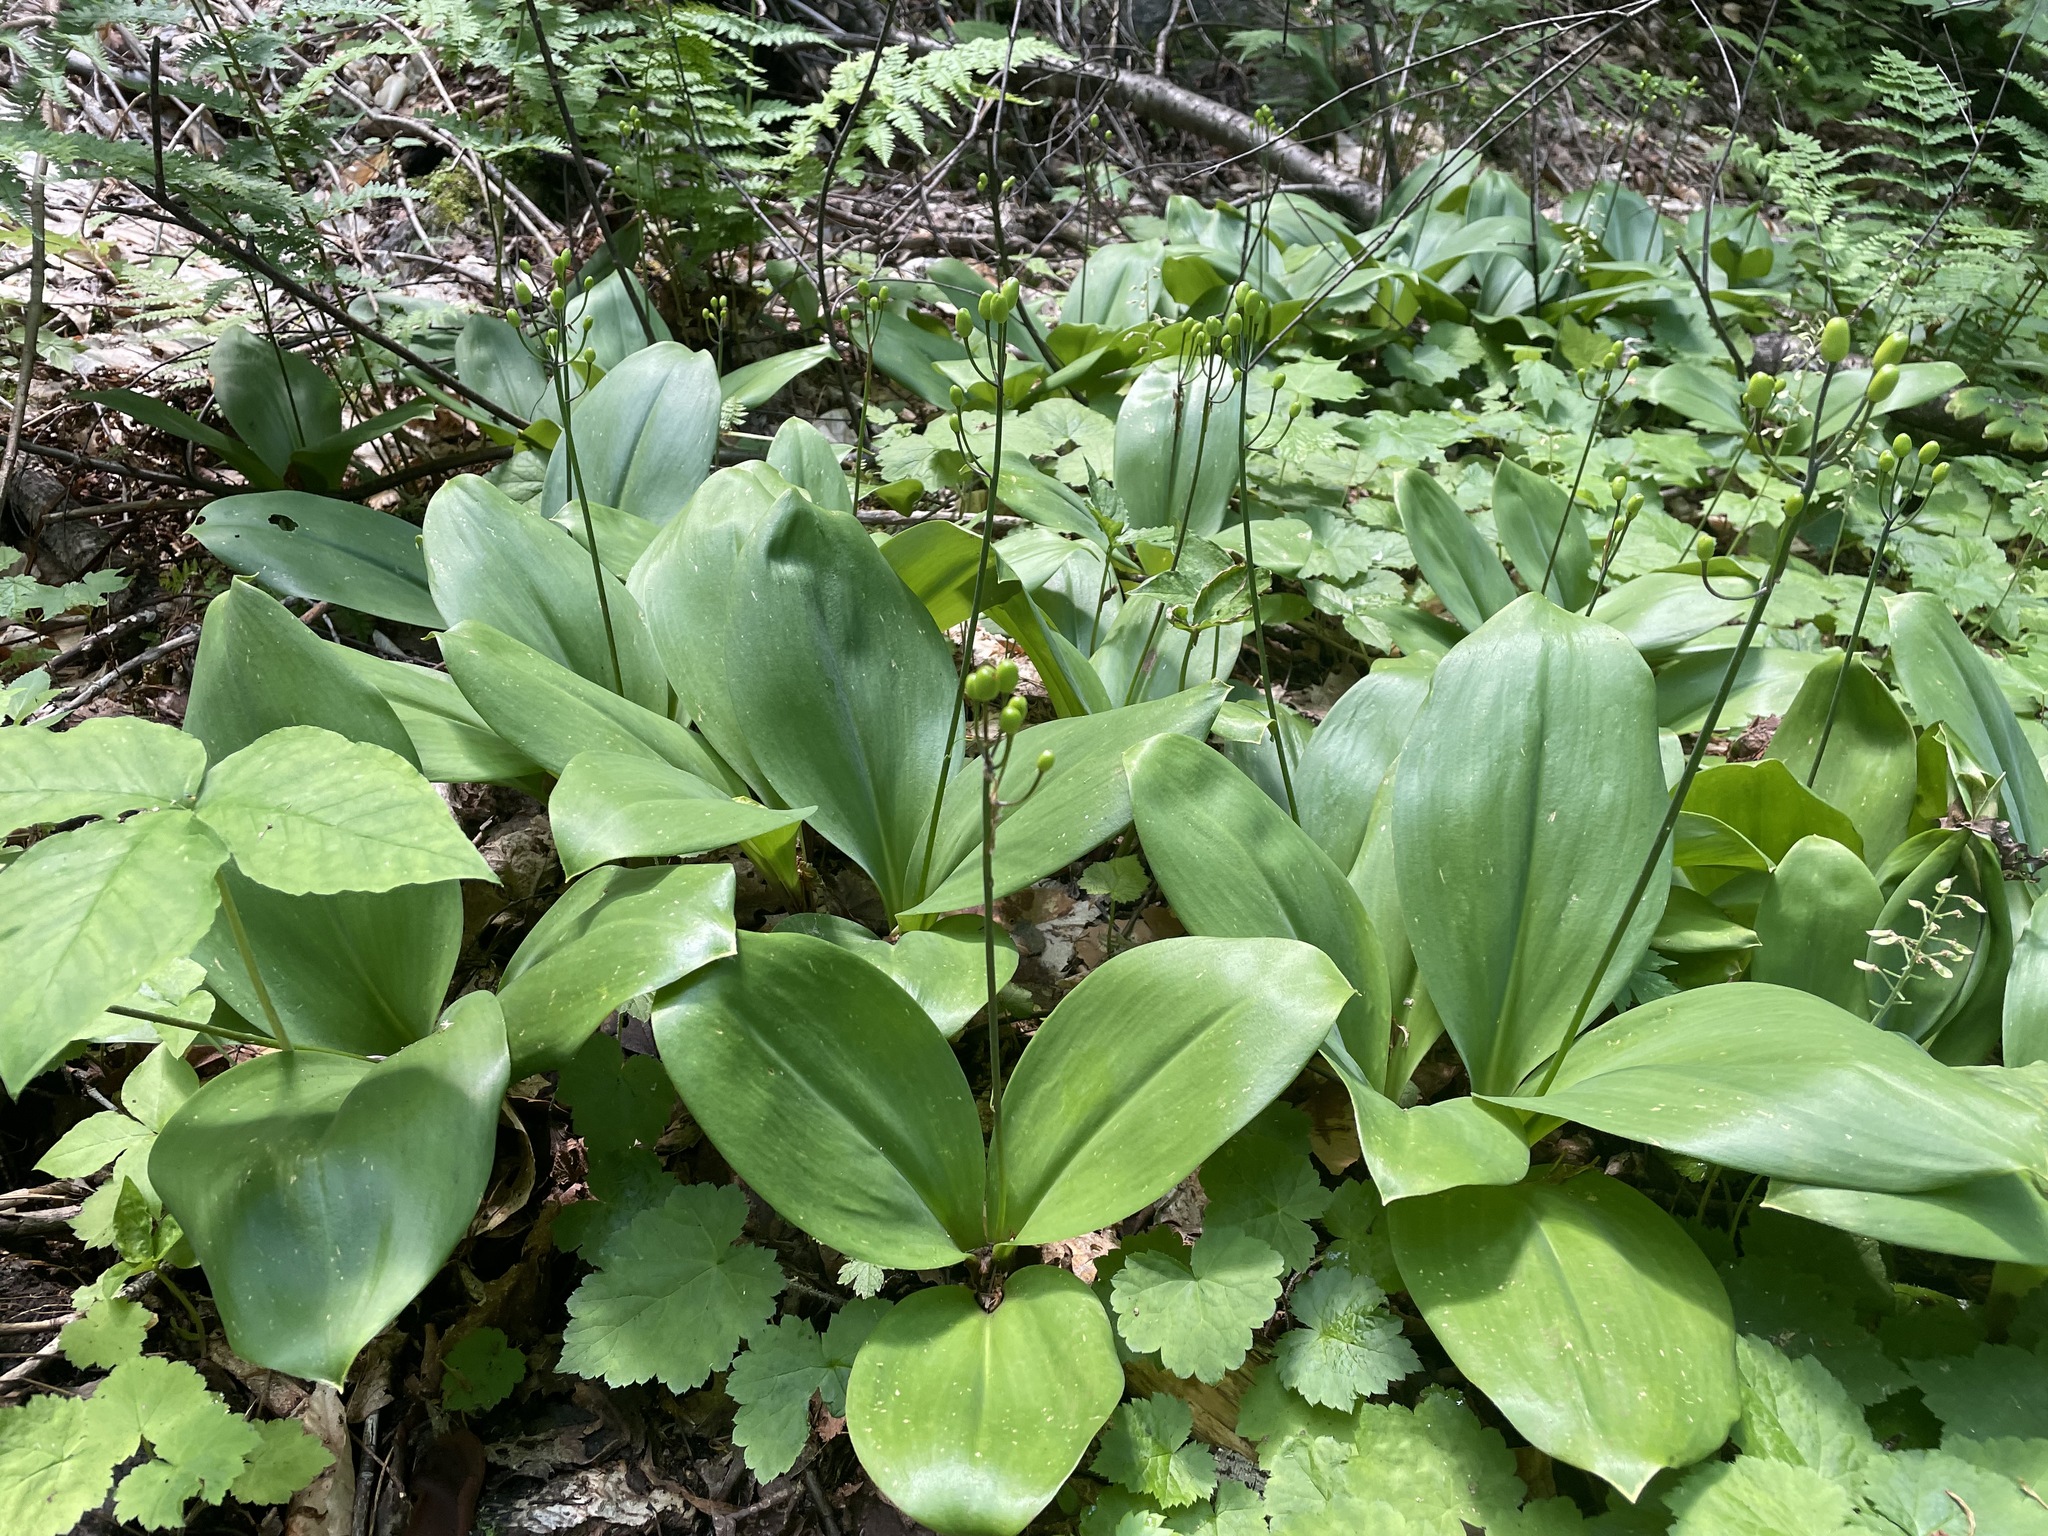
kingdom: Plantae
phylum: Tracheophyta
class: Liliopsida
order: Liliales
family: Liliaceae
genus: Clintonia
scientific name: Clintonia borealis
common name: Yellow clintonia
